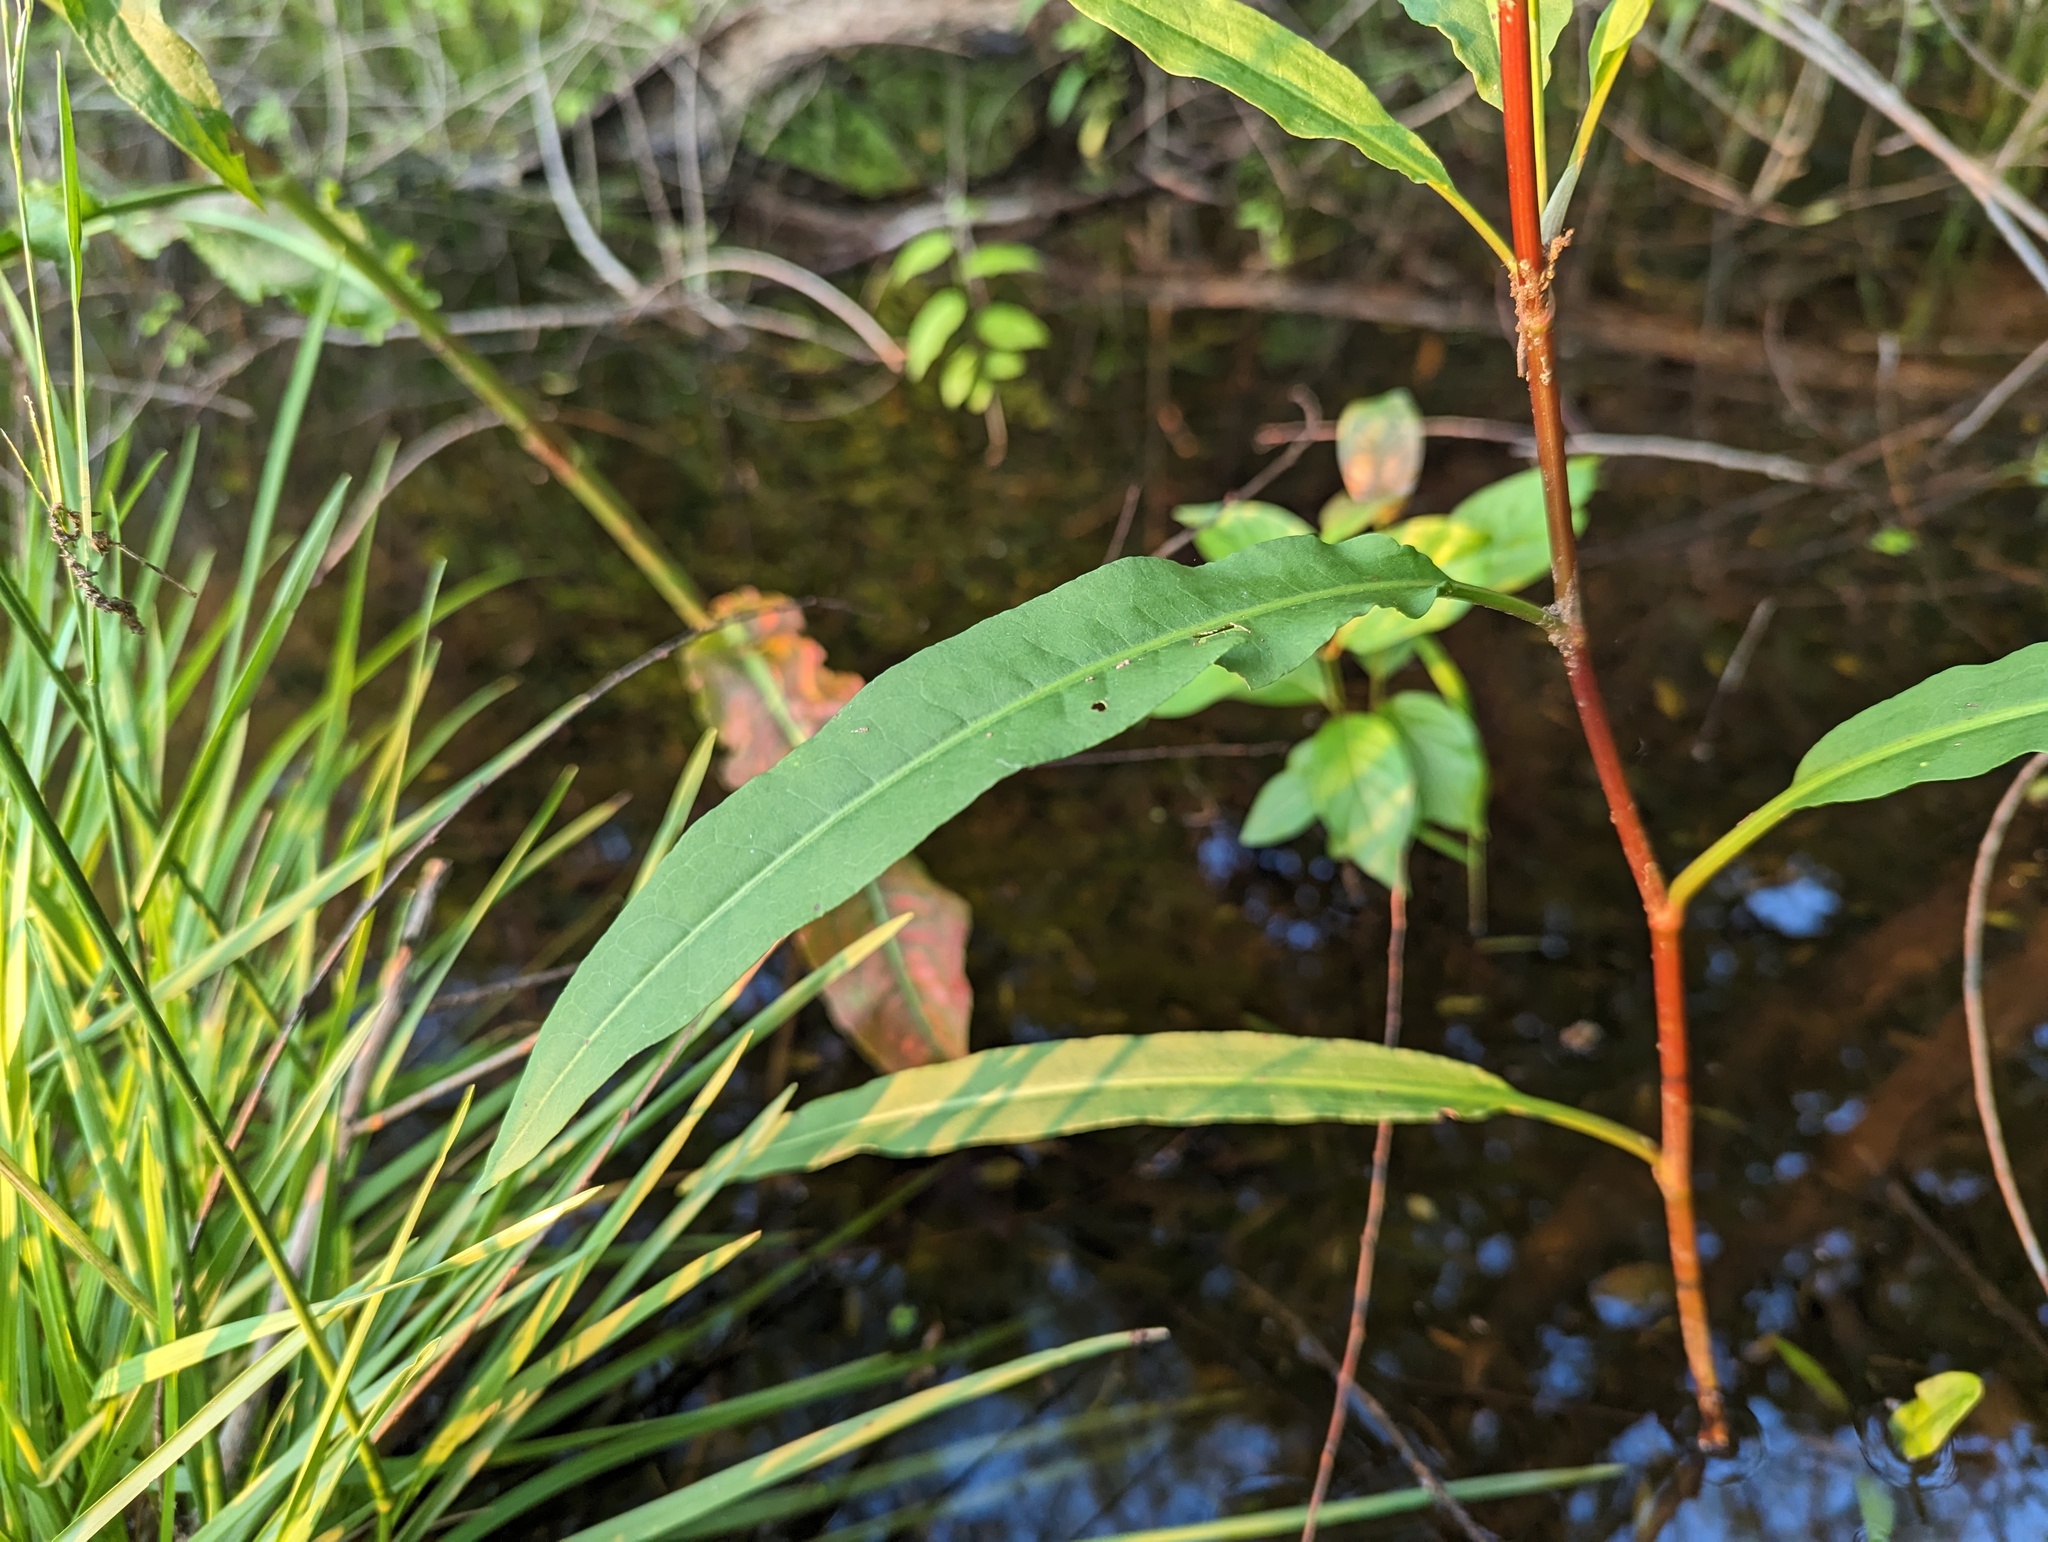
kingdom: Plantae
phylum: Tracheophyta
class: Magnoliopsida
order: Caryophyllales
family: Polygonaceae
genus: Rumex
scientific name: Rumex verticillatus
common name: Swamp dock
